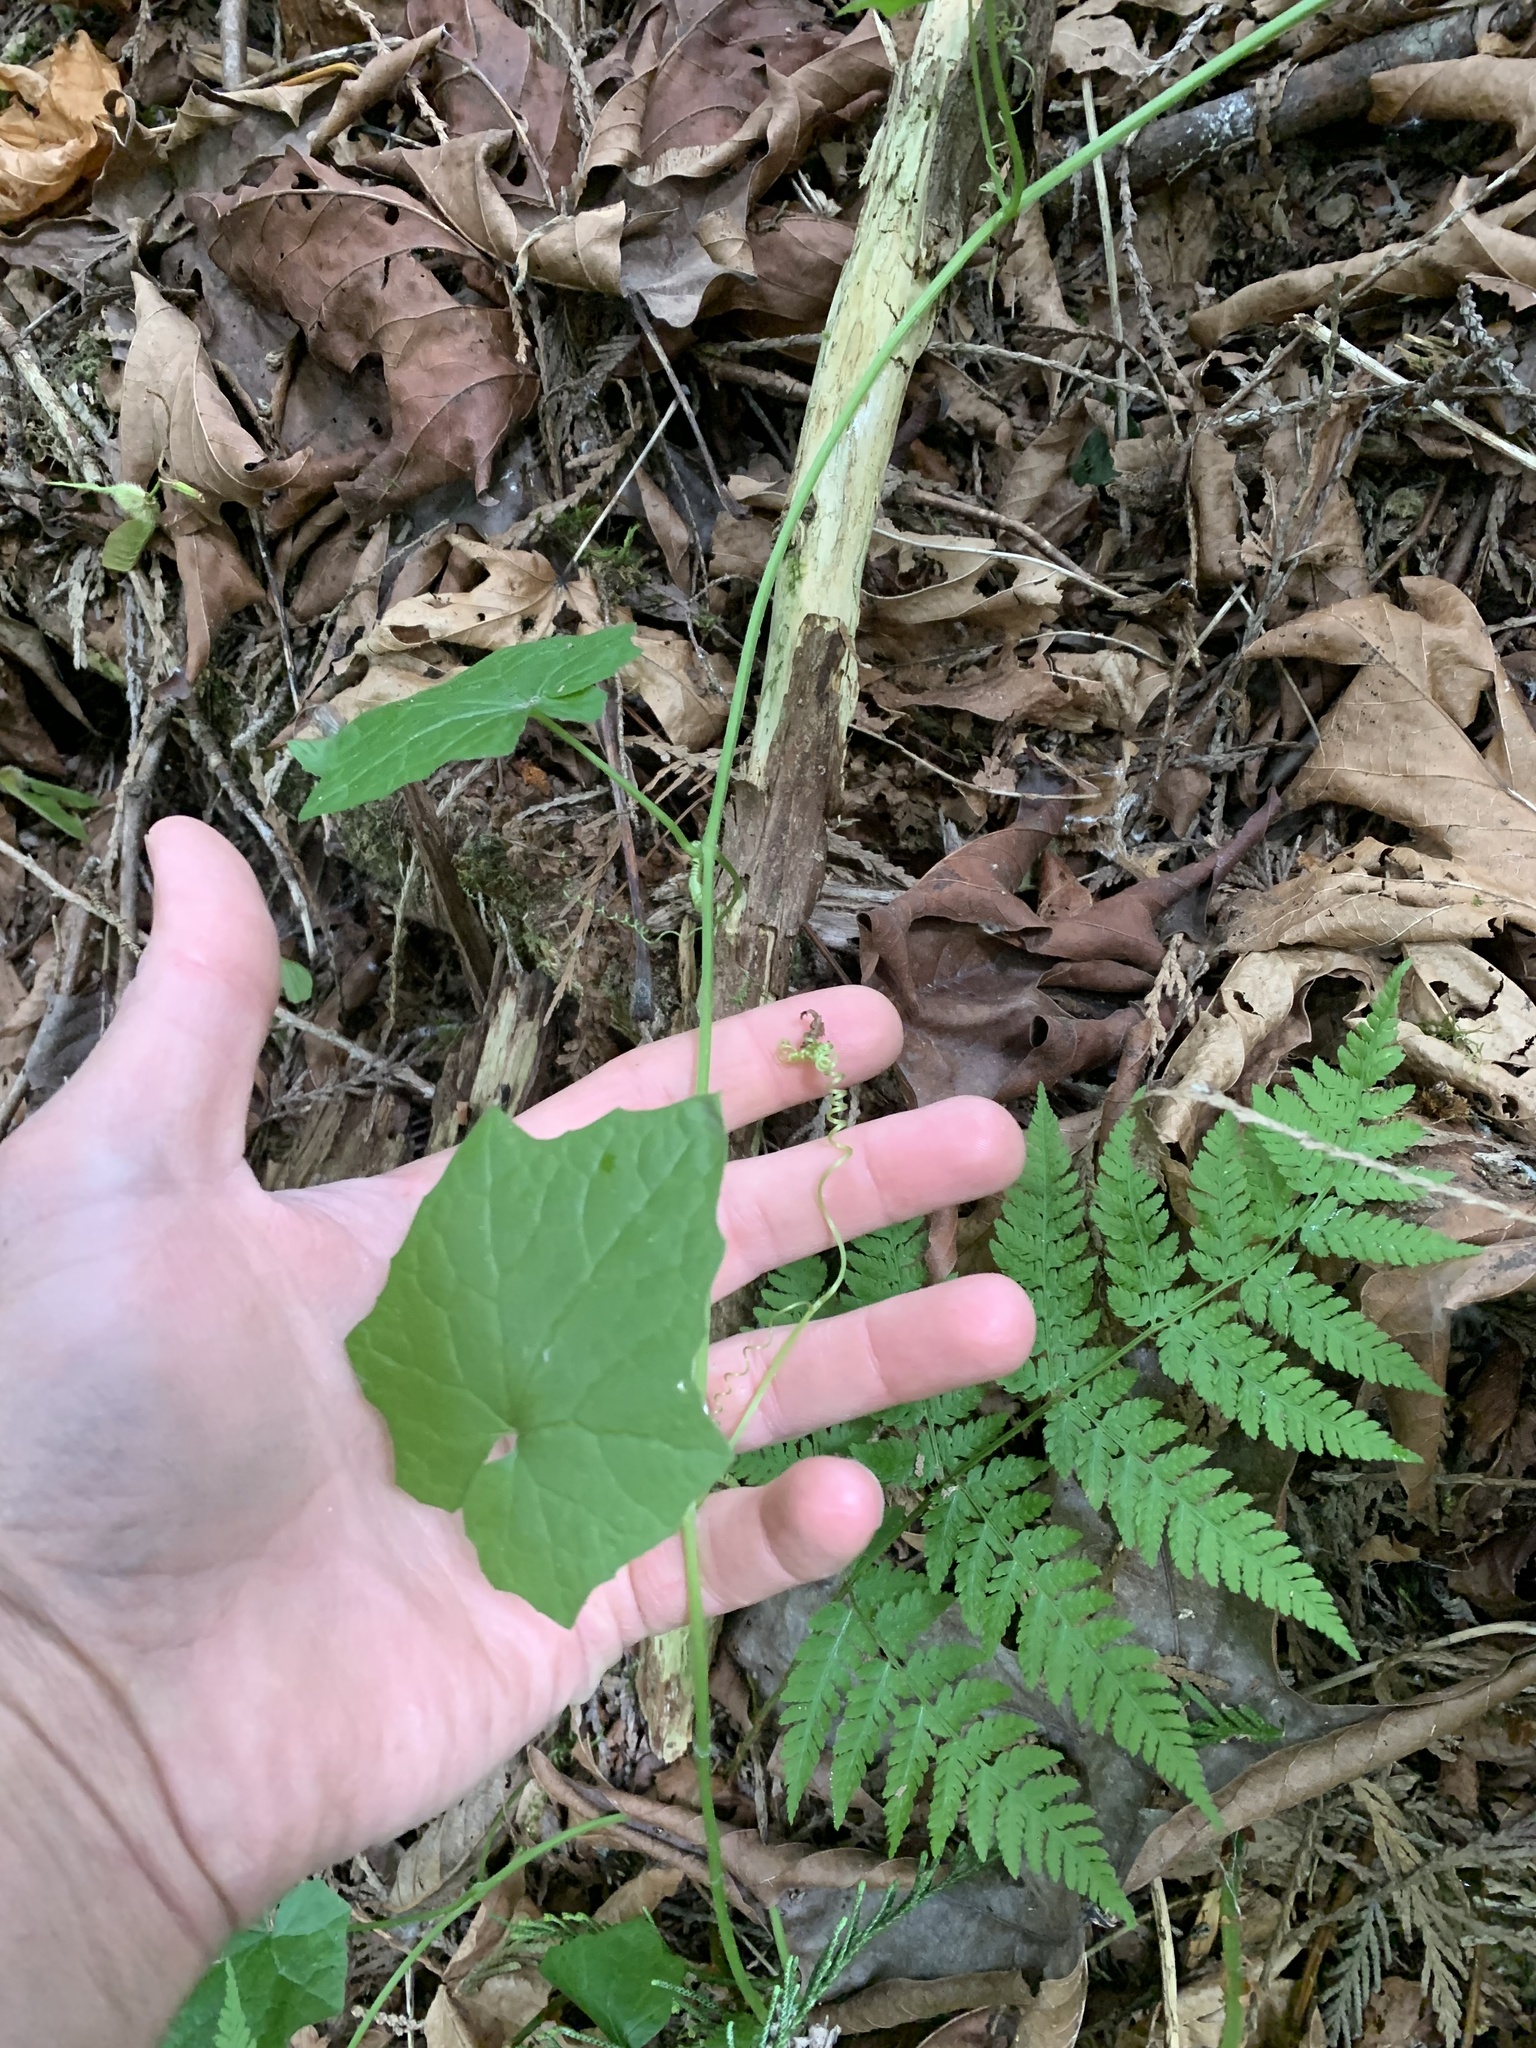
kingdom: Plantae
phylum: Tracheophyta
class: Magnoliopsida
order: Cucurbitales
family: Cucurbitaceae
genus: Marah
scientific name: Marah oregana
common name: Coastal manroot
